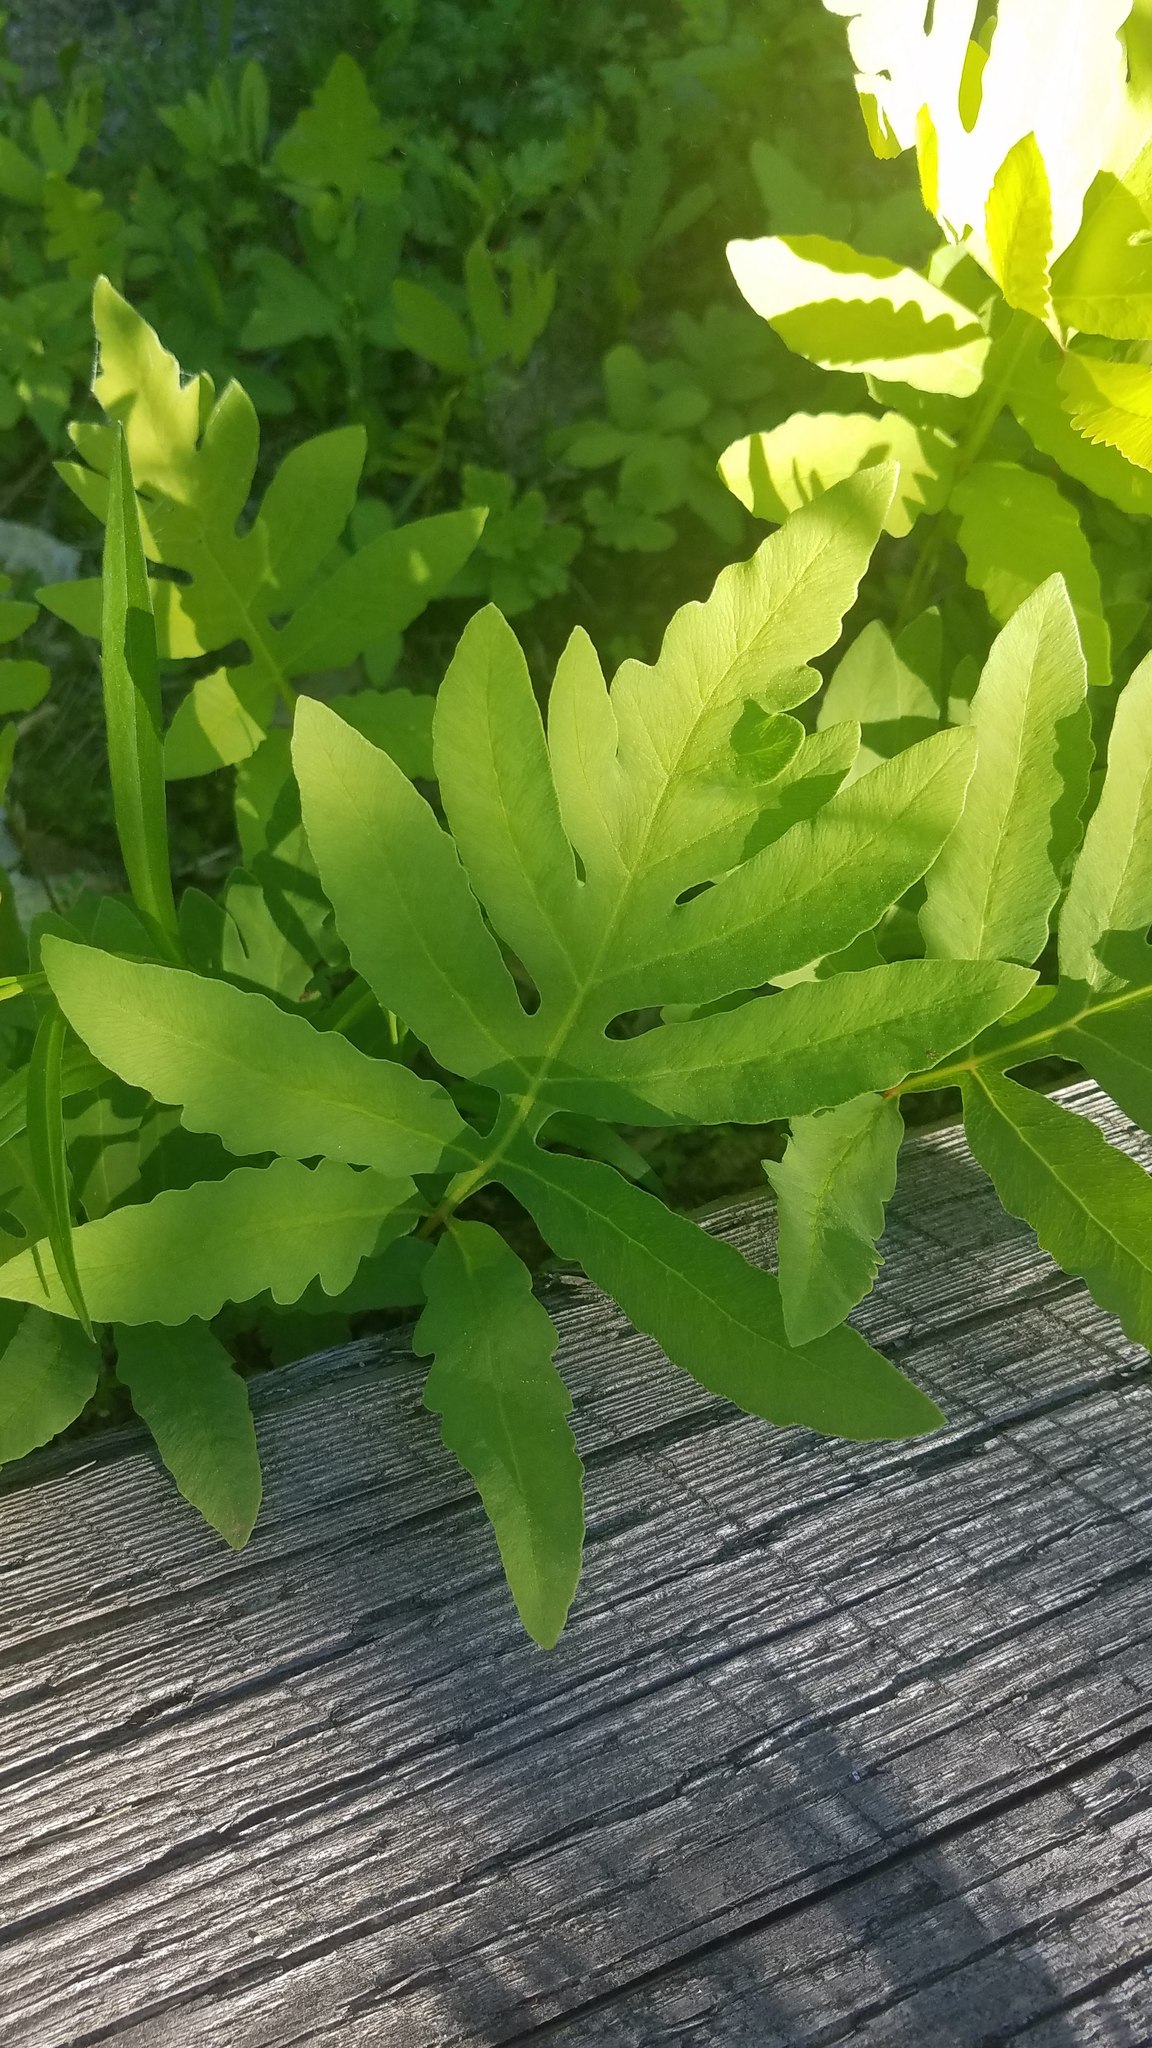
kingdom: Plantae
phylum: Tracheophyta
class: Polypodiopsida
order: Polypodiales
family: Onocleaceae
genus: Onoclea
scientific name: Onoclea sensibilis
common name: Sensitive fern
